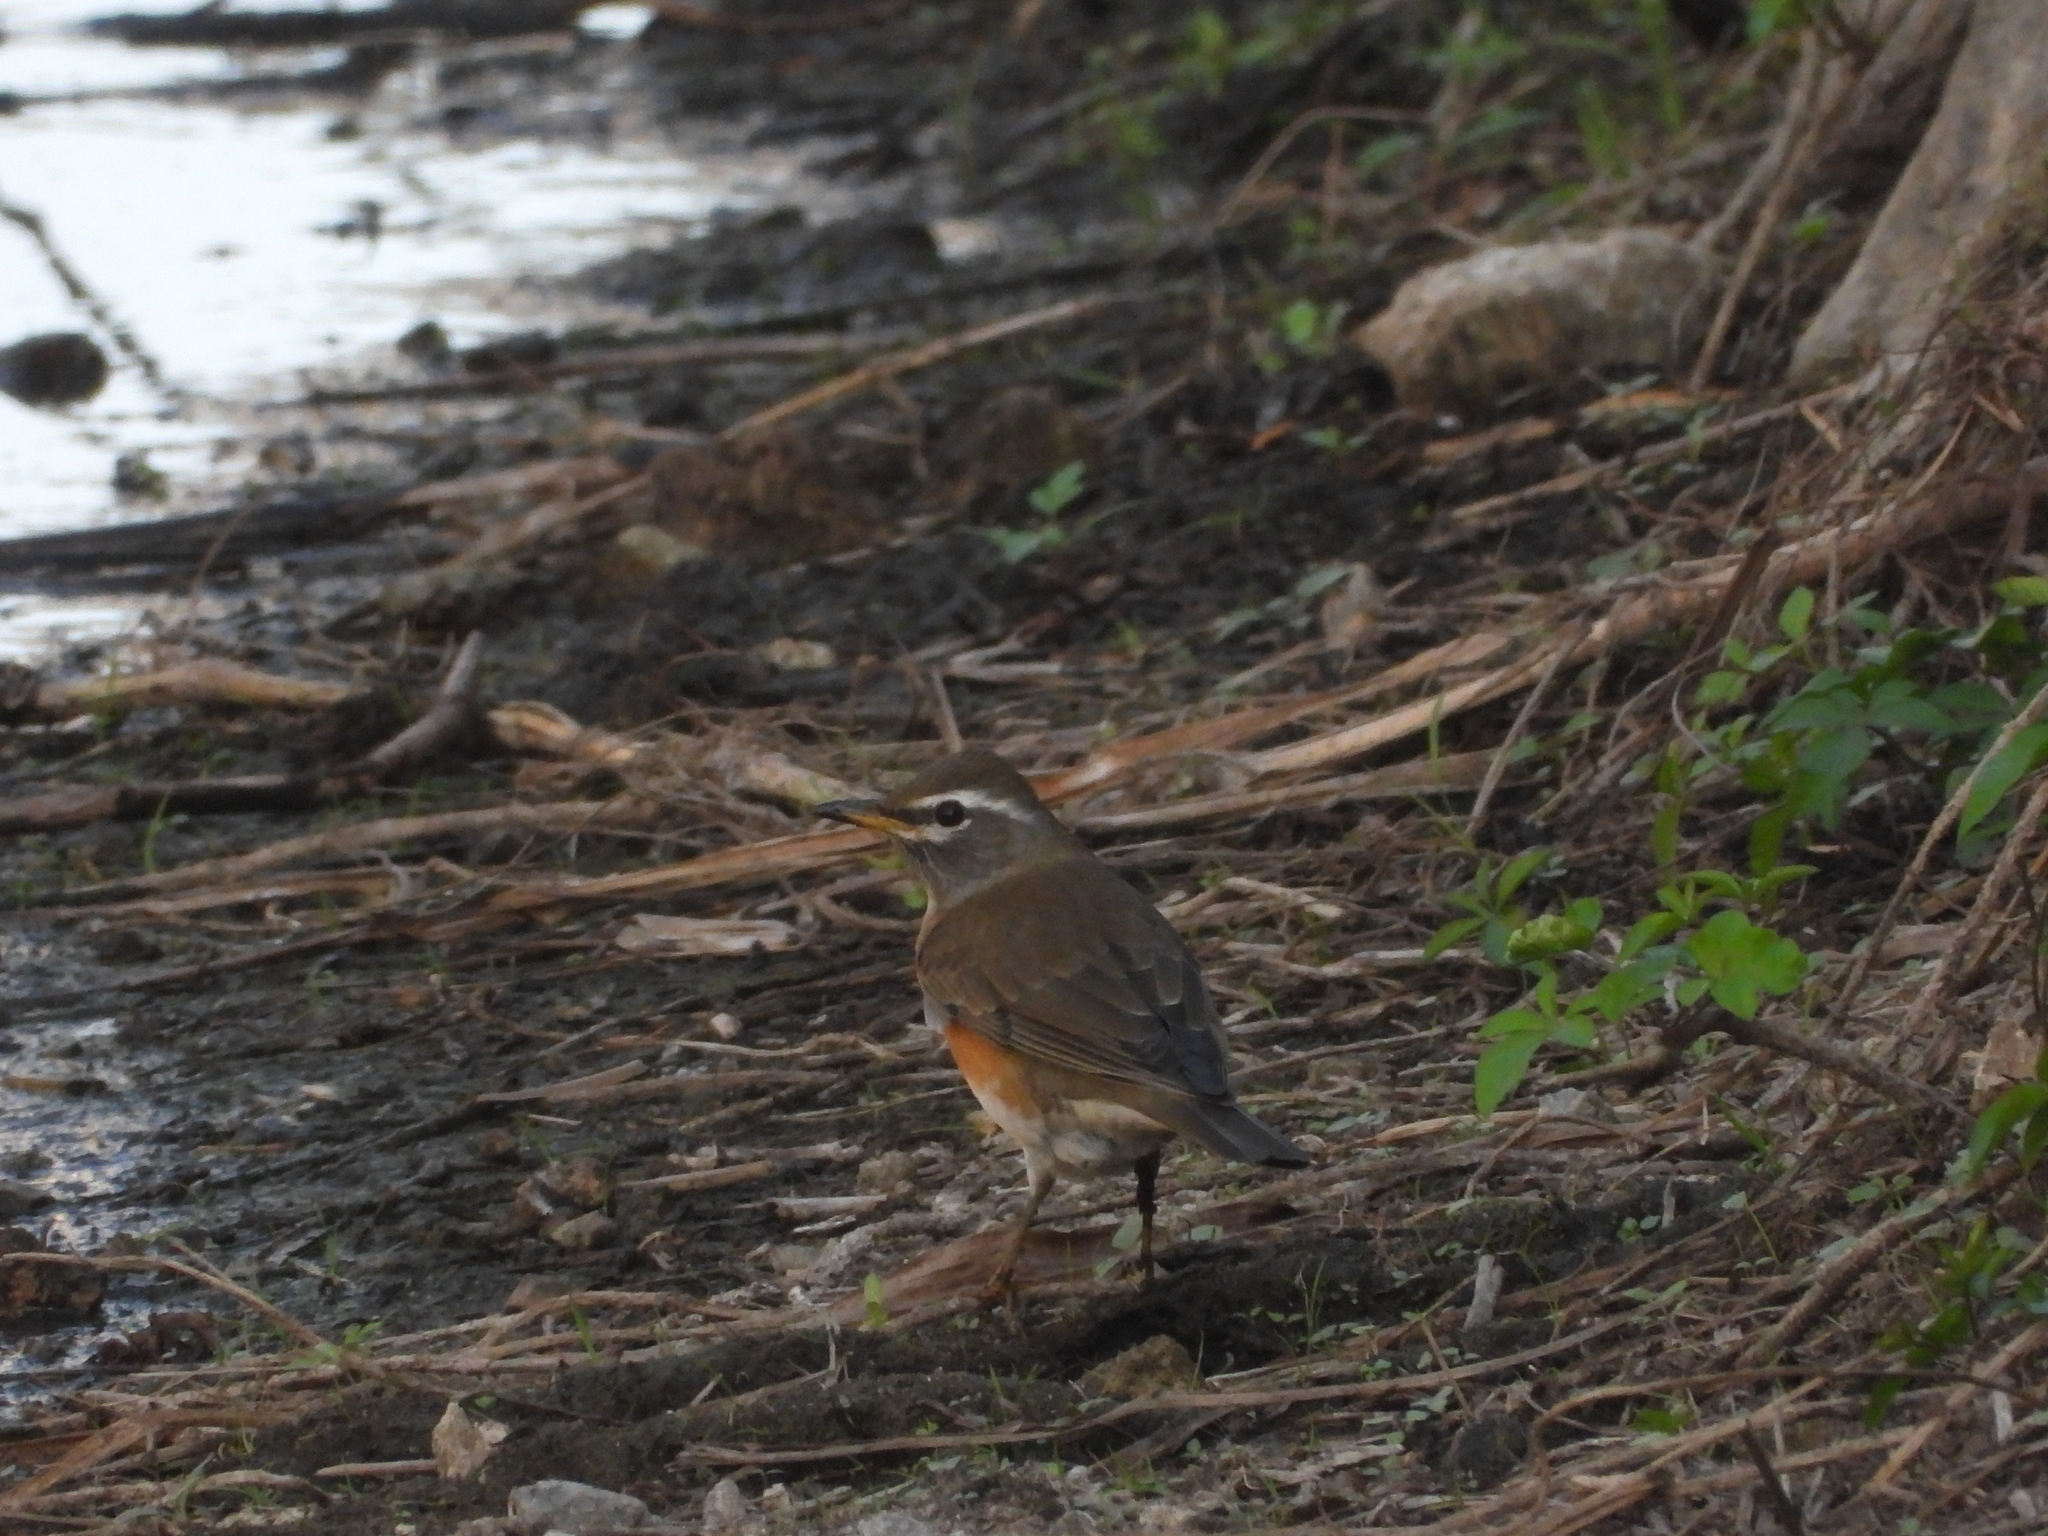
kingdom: Animalia
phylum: Chordata
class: Aves
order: Passeriformes
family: Turdidae
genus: Turdus
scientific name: Turdus obscurus
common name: Eyebrowed thrush
